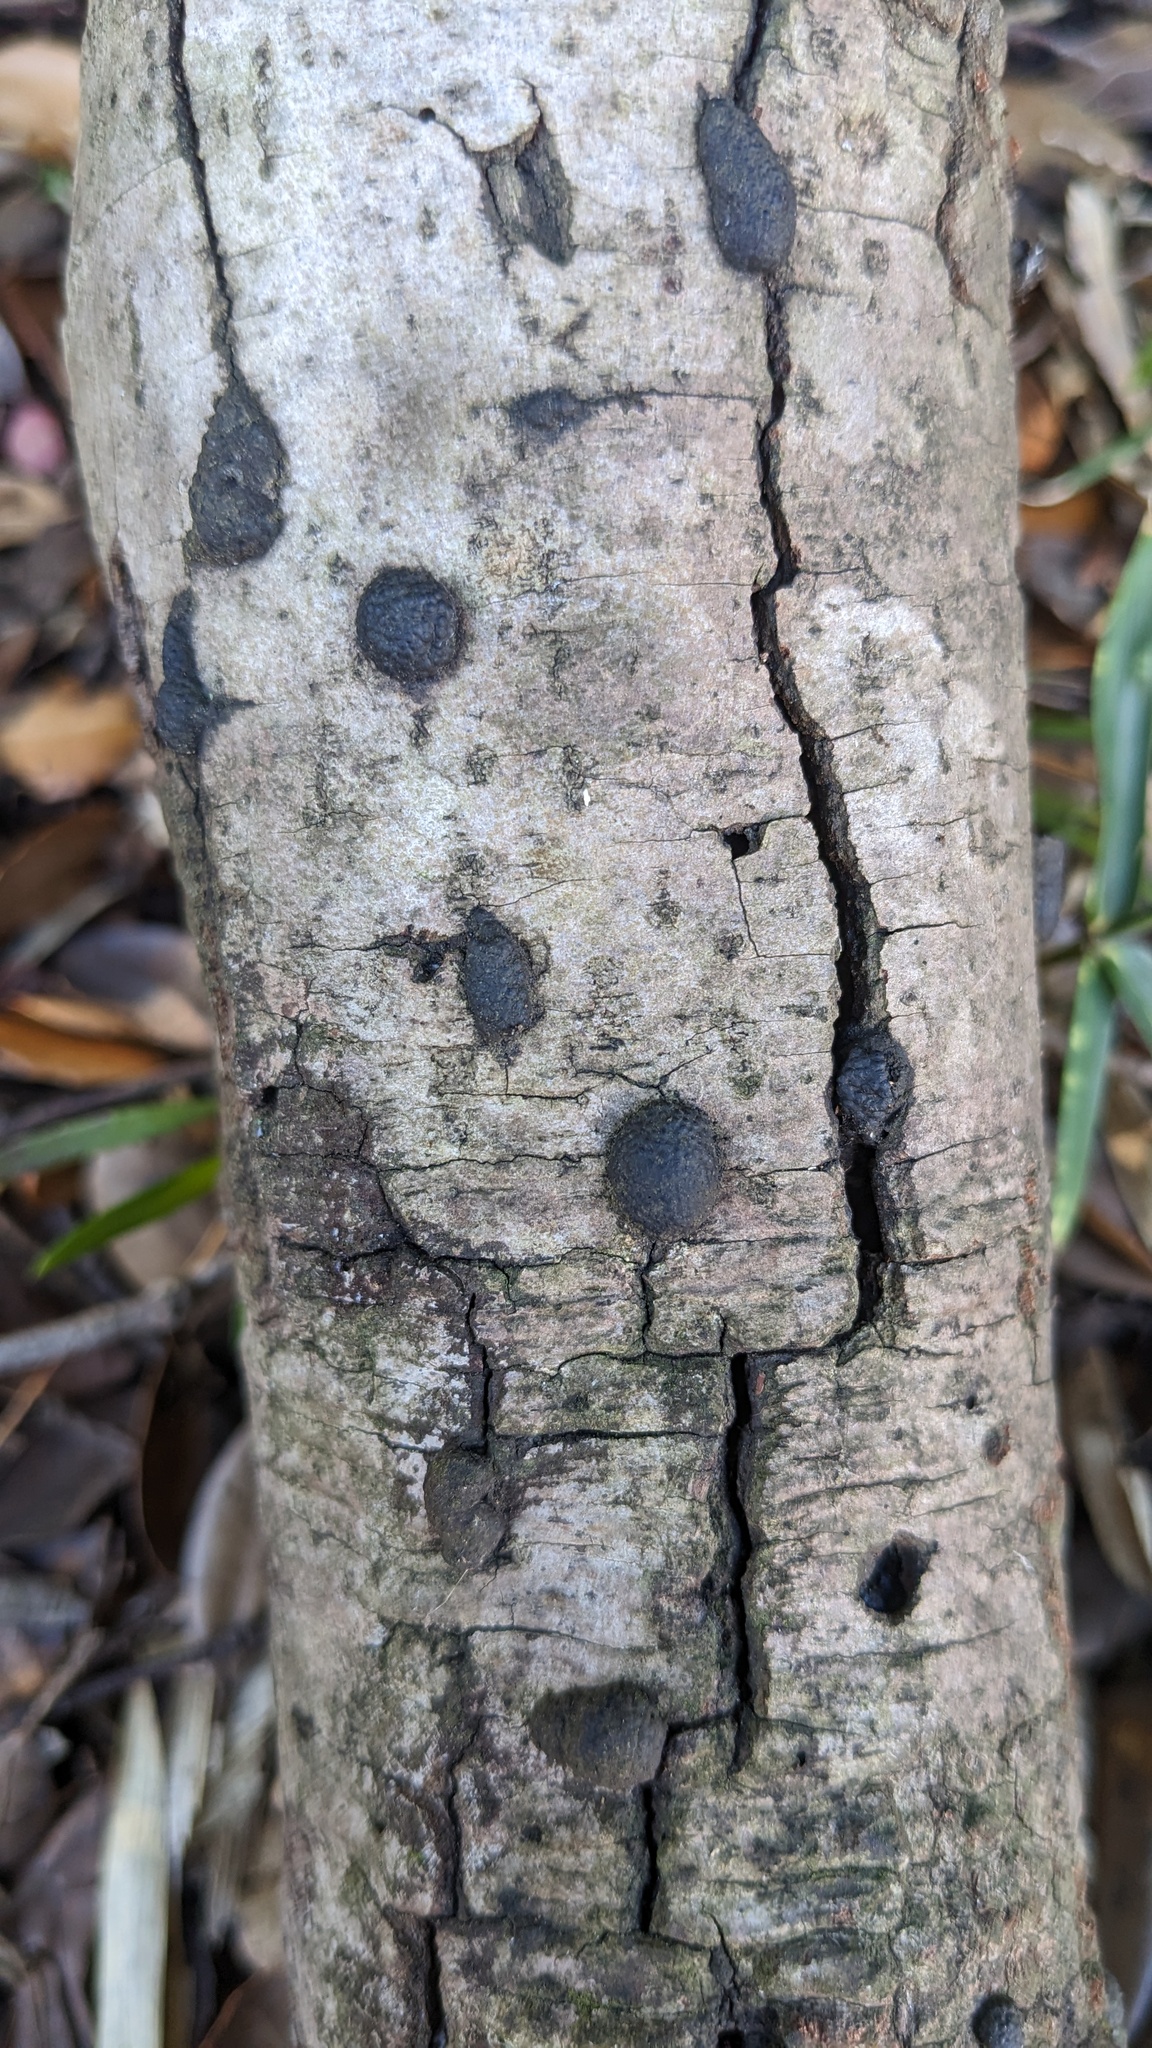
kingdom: Fungi
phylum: Ascomycota
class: Sordariomycetes
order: Xylariales
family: Hypoxylaceae
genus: Annulohypoxylon
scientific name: Annulohypoxylon truncatum
